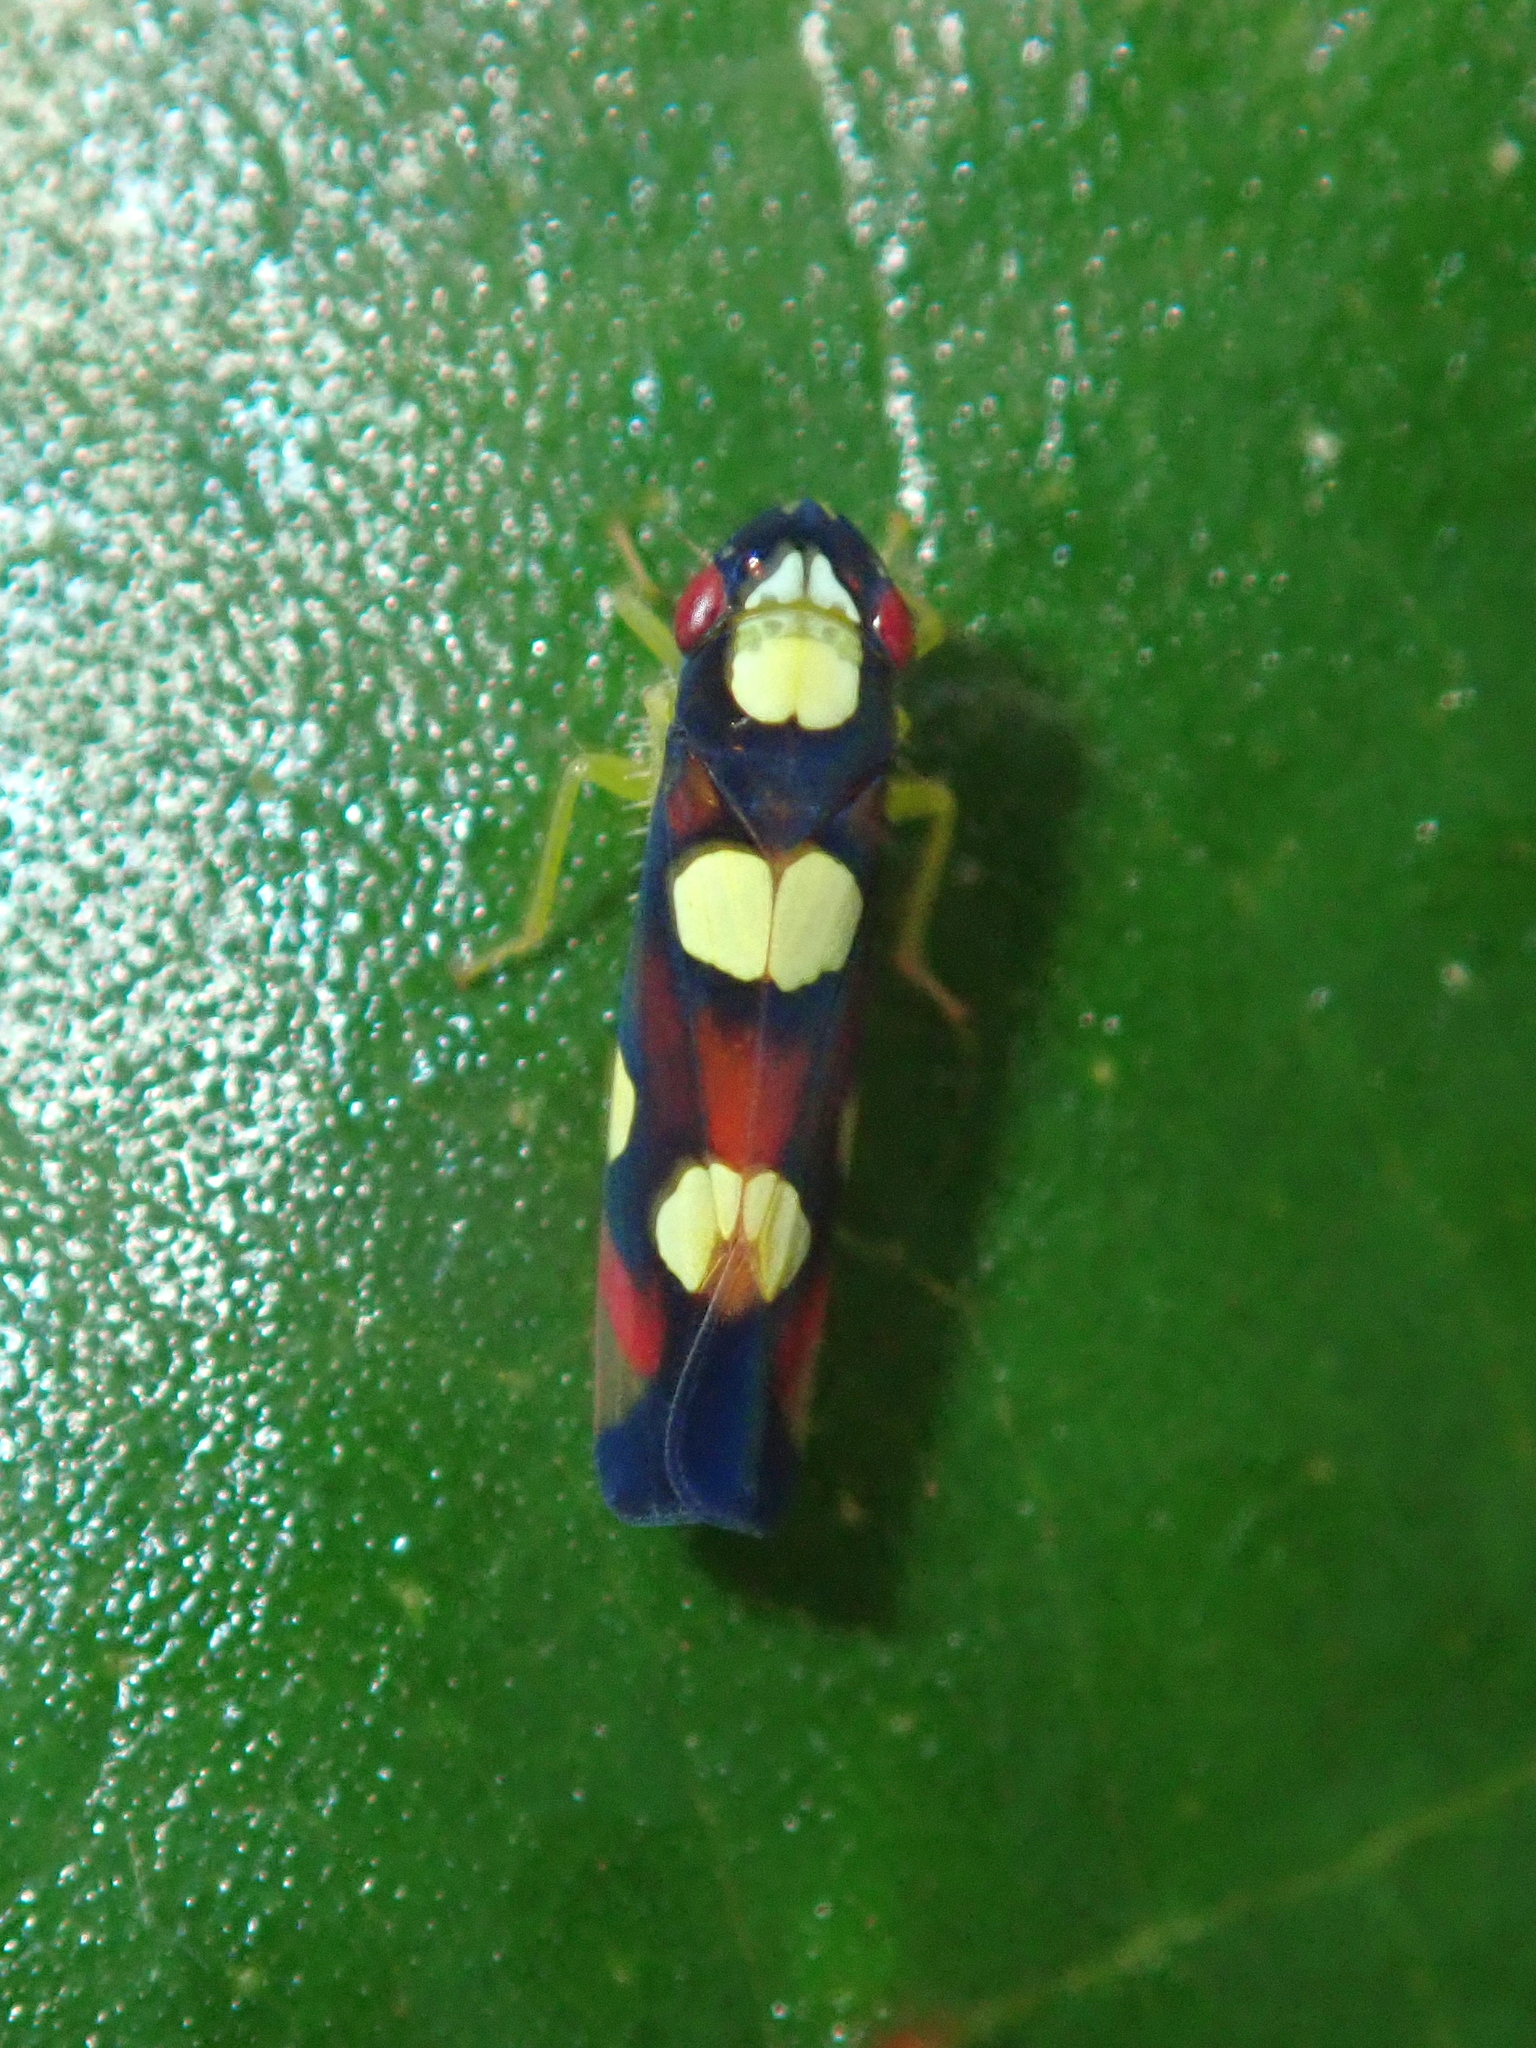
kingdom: Animalia
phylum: Arthropoda
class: Insecta
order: Hemiptera
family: Cicadellidae
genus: Erythrogonia
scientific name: Erythrogonia sexguttata
